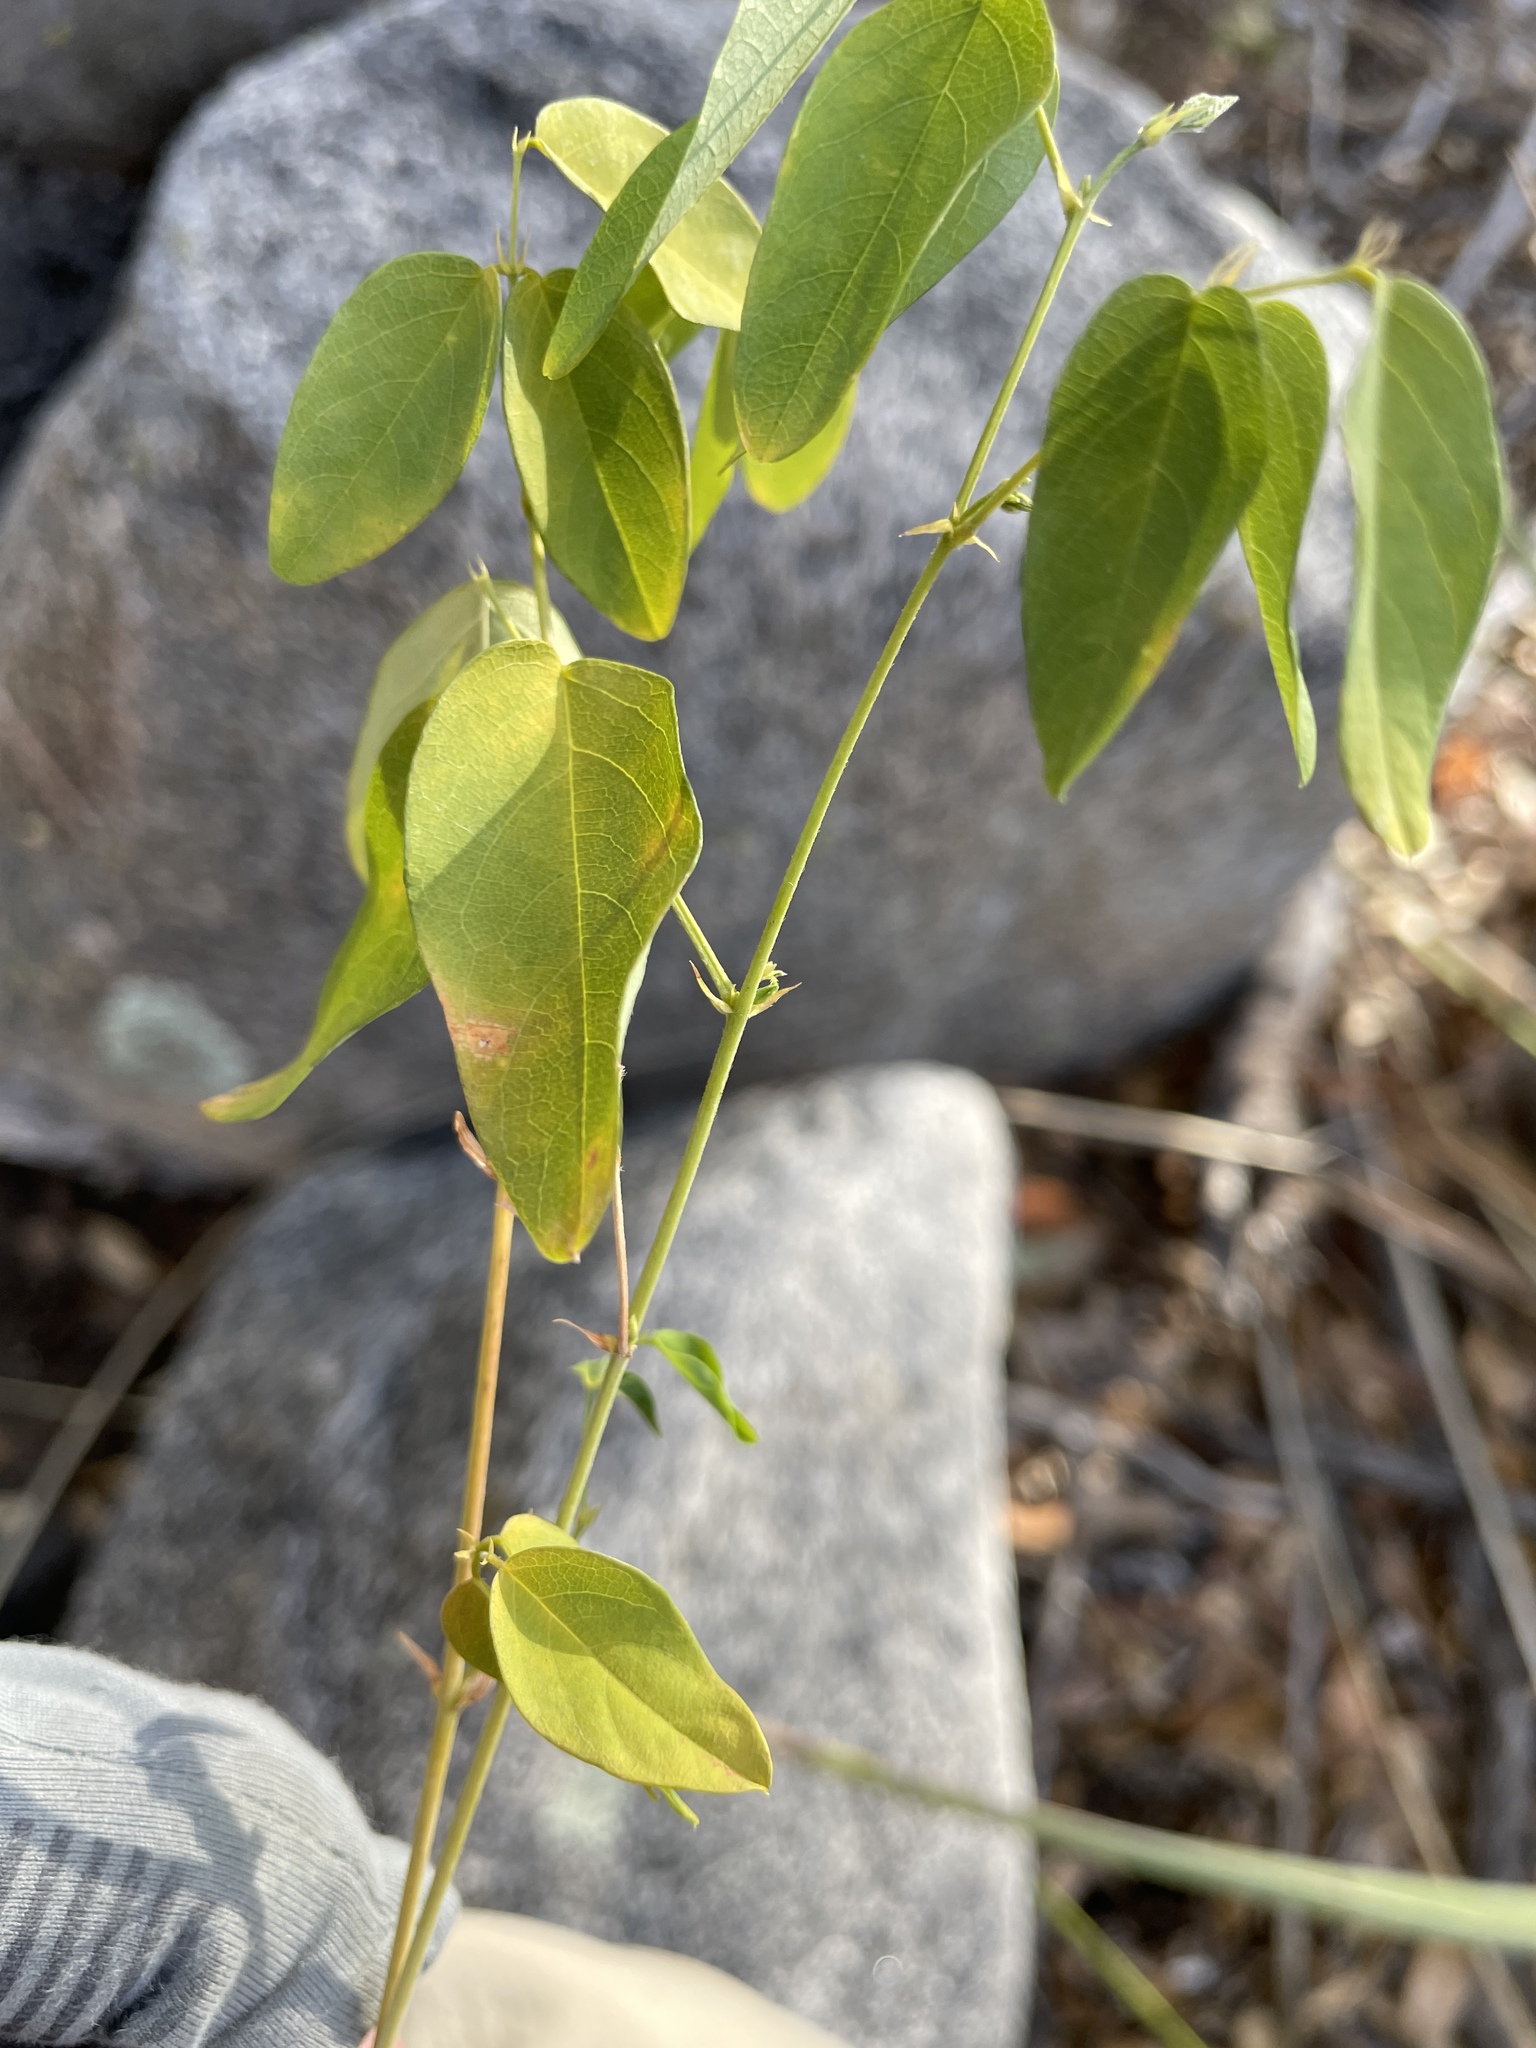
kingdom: Plantae
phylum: Tracheophyta
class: Magnoliopsida
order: Fabales
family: Fabaceae
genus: Clitoria
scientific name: Clitoria mariana
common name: Butterfly-pea
